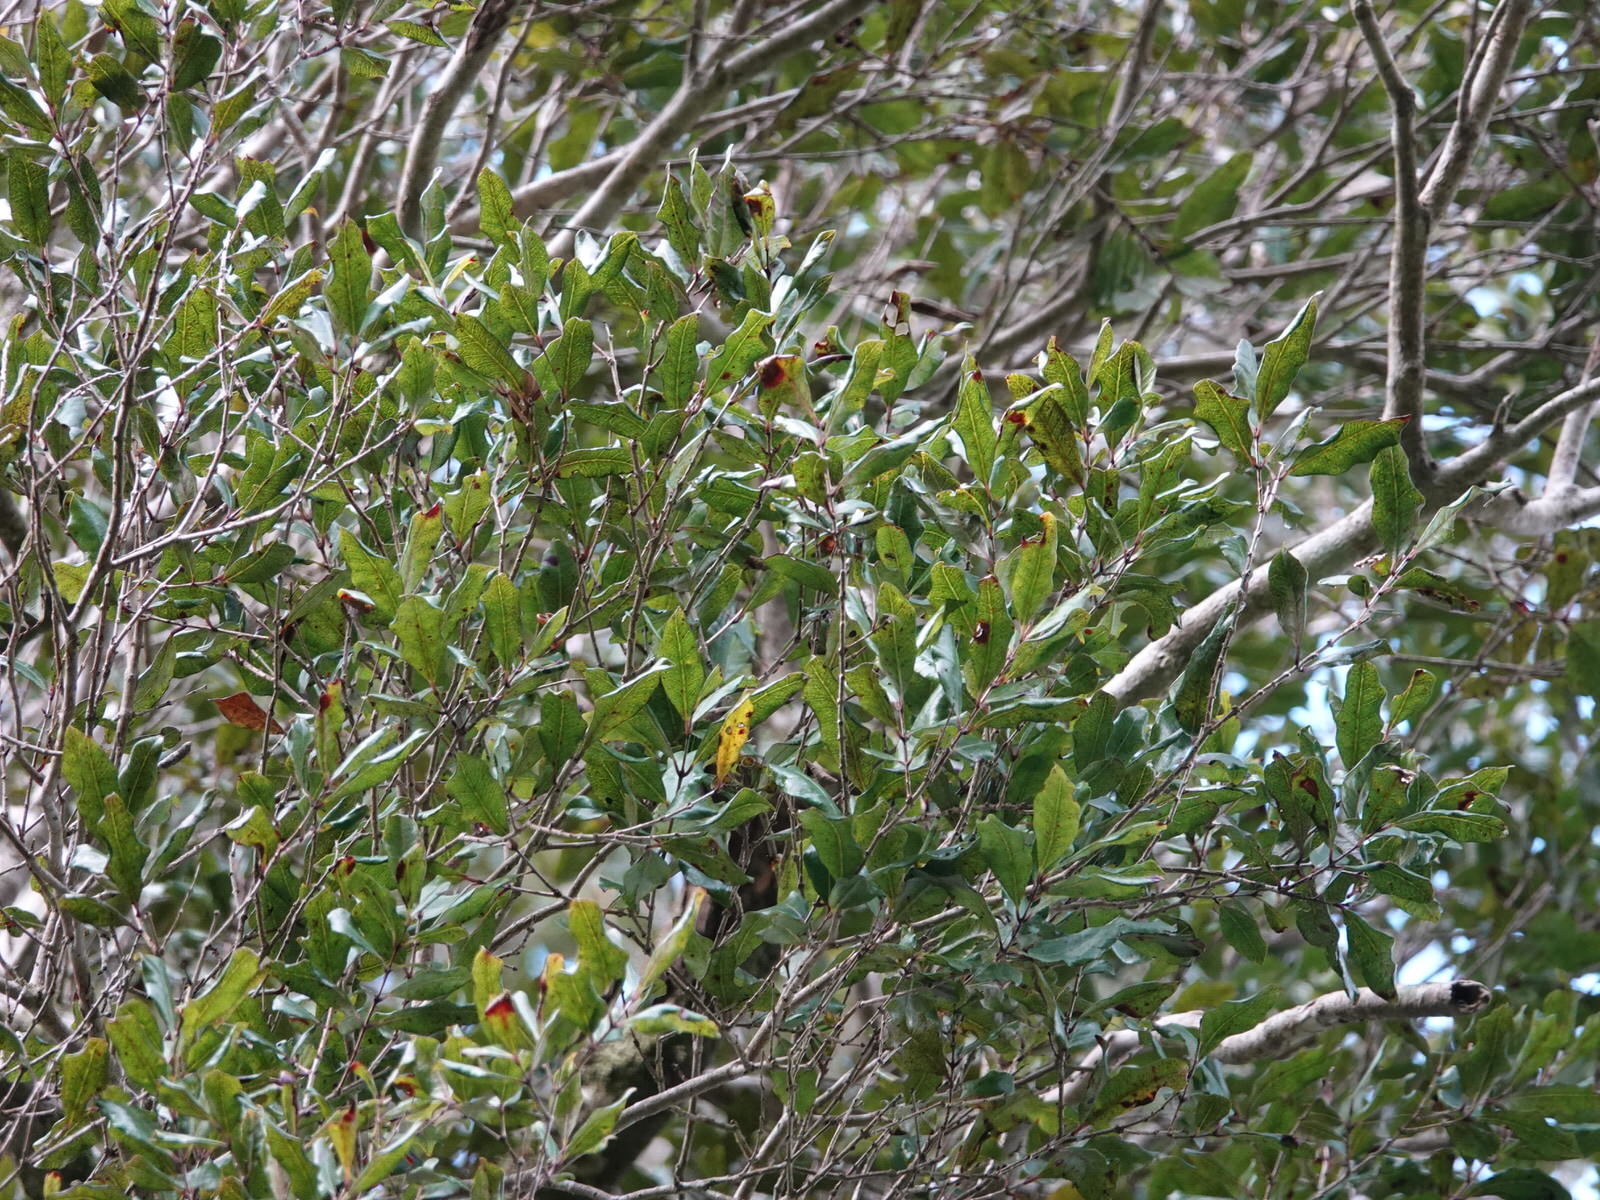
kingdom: Plantae
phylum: Tracheophyta
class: Magnoliopsida
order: Myrtales
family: Myrtaceae
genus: Syzygium
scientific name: Syzygium maire
